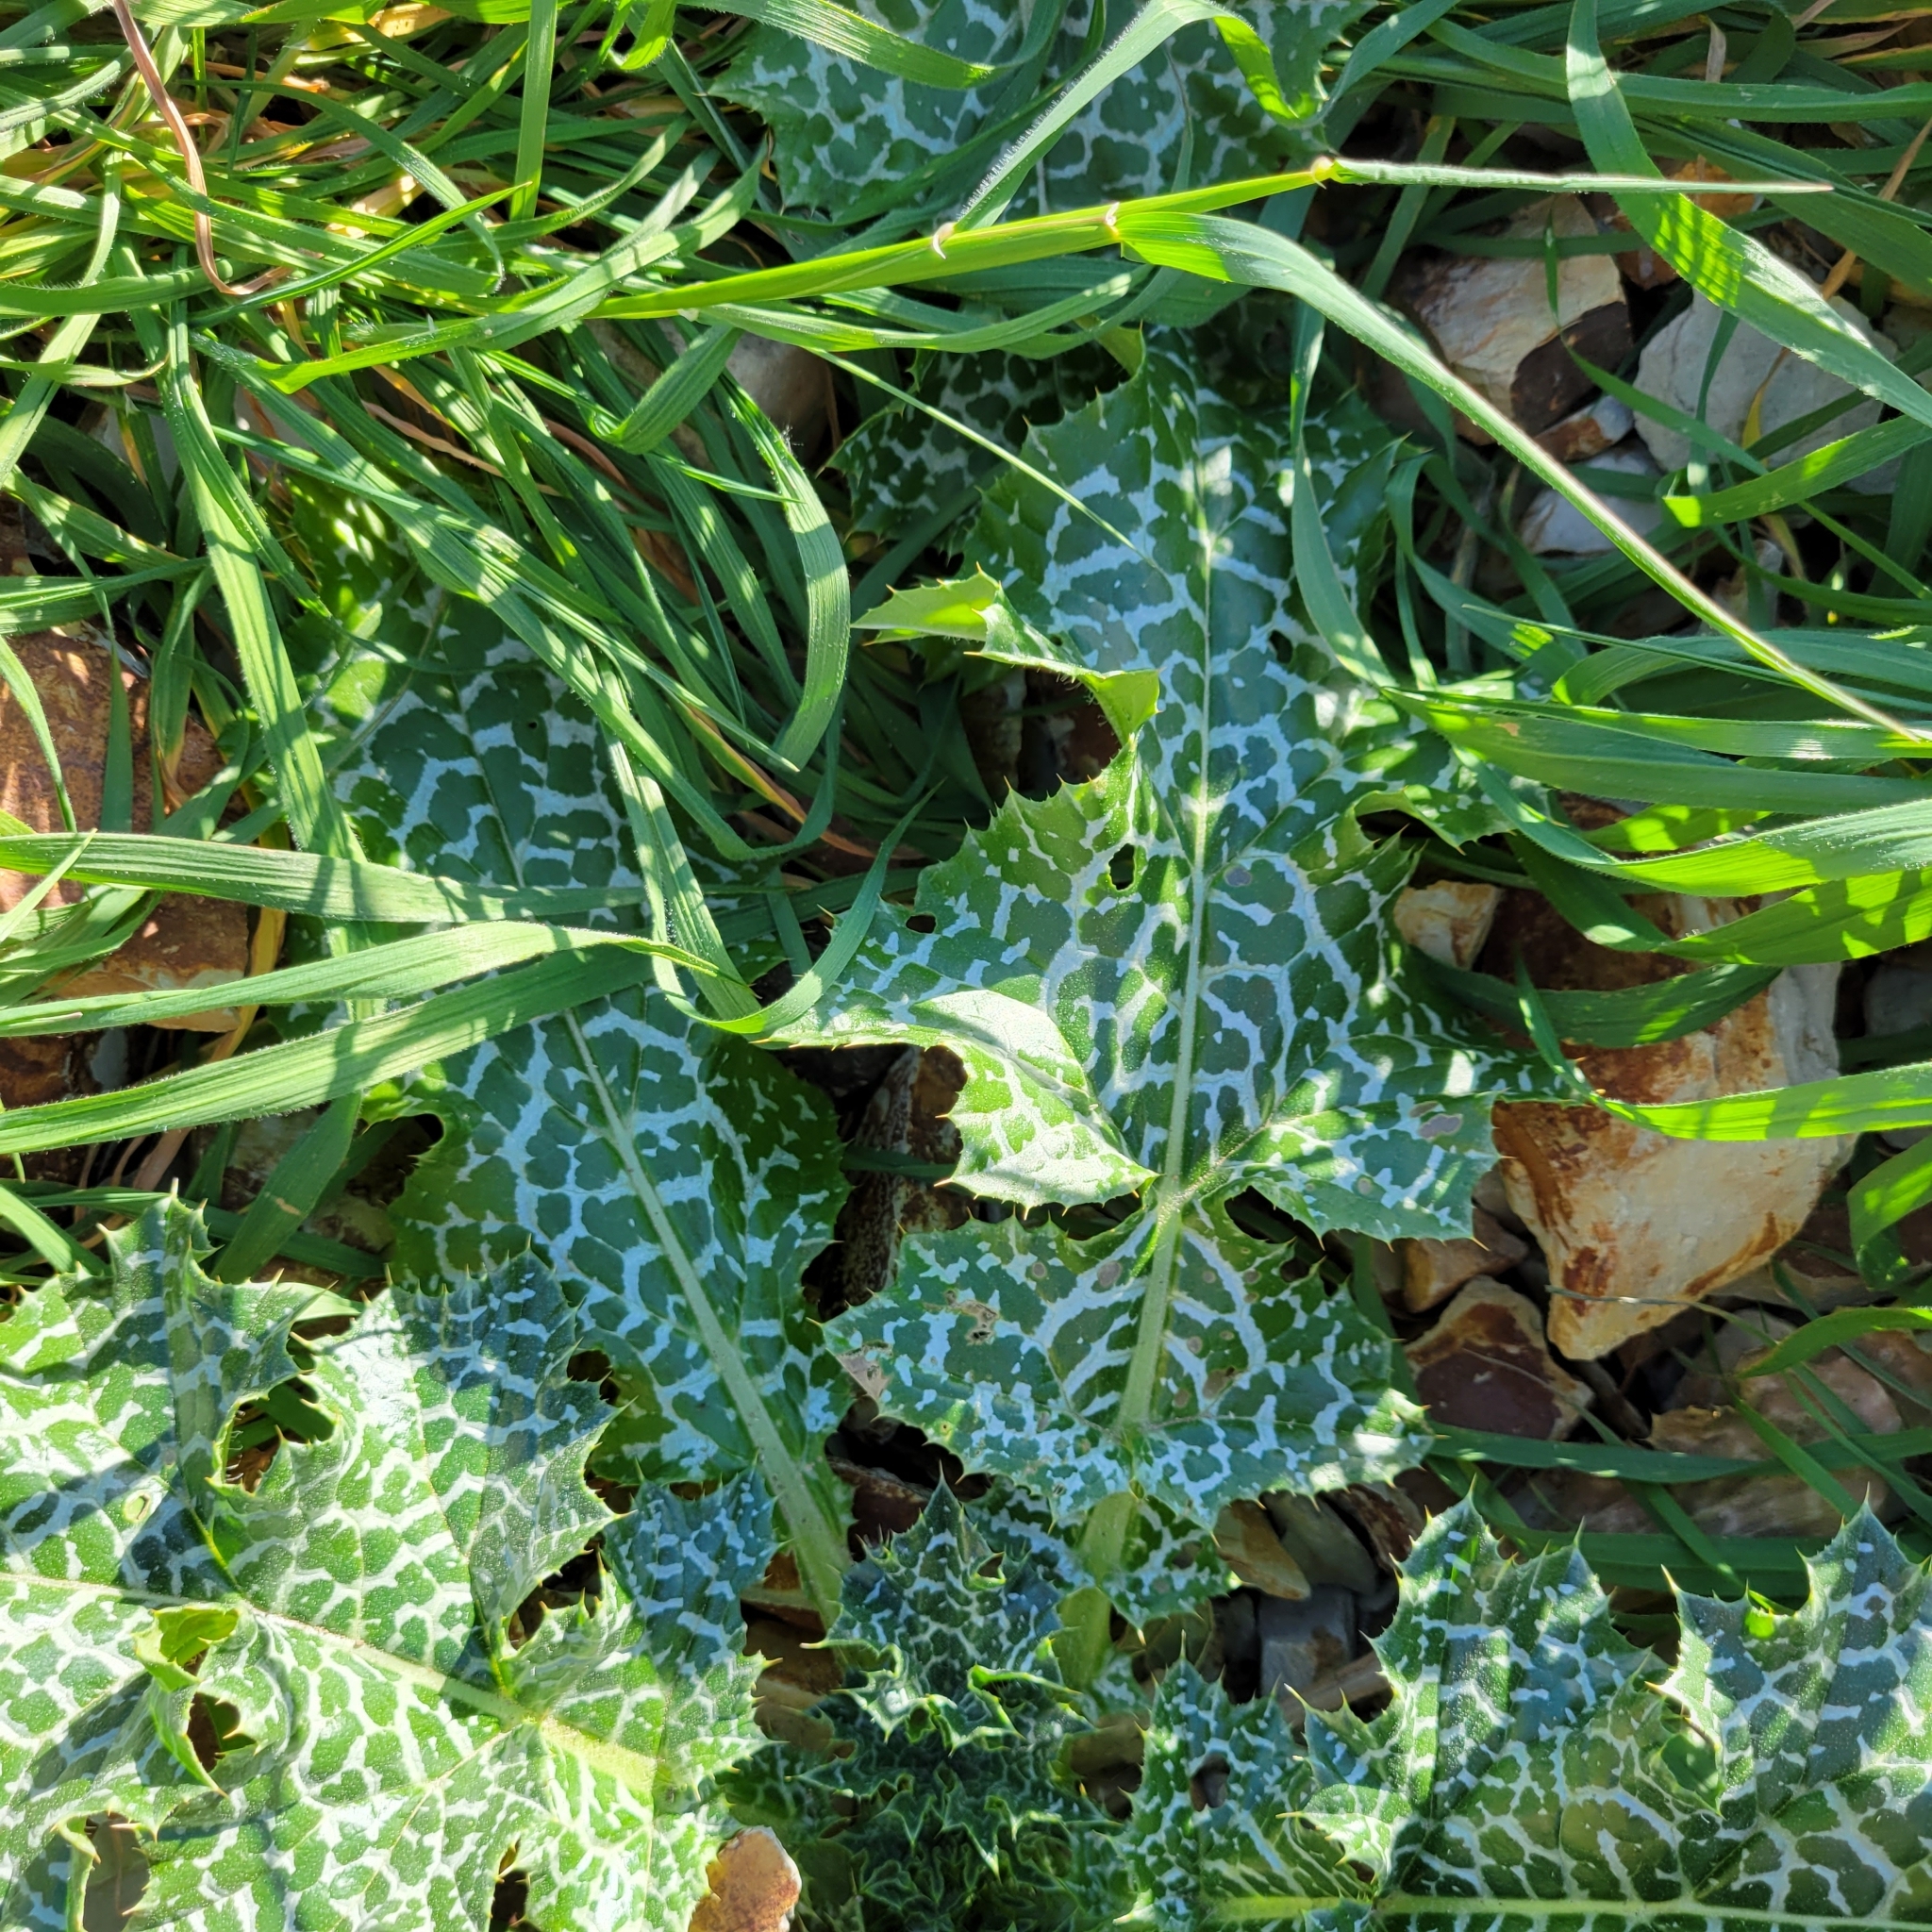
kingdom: Plantae
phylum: Tracheophyta
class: Magnoliopsida
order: Asterales
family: Asteraceae
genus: Silybum
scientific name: Silybum marianum
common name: Milk thistle
